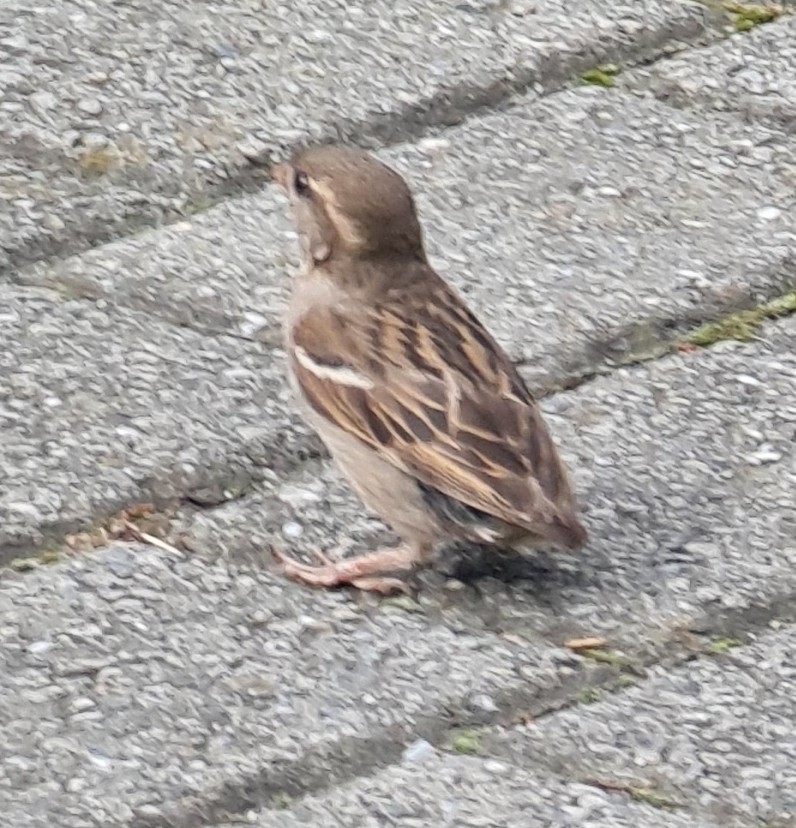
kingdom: Animalia
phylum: Chordata
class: Aves
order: Passeriformes
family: Passeridae
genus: Passer
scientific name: Passer domesticus
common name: House sparrow
